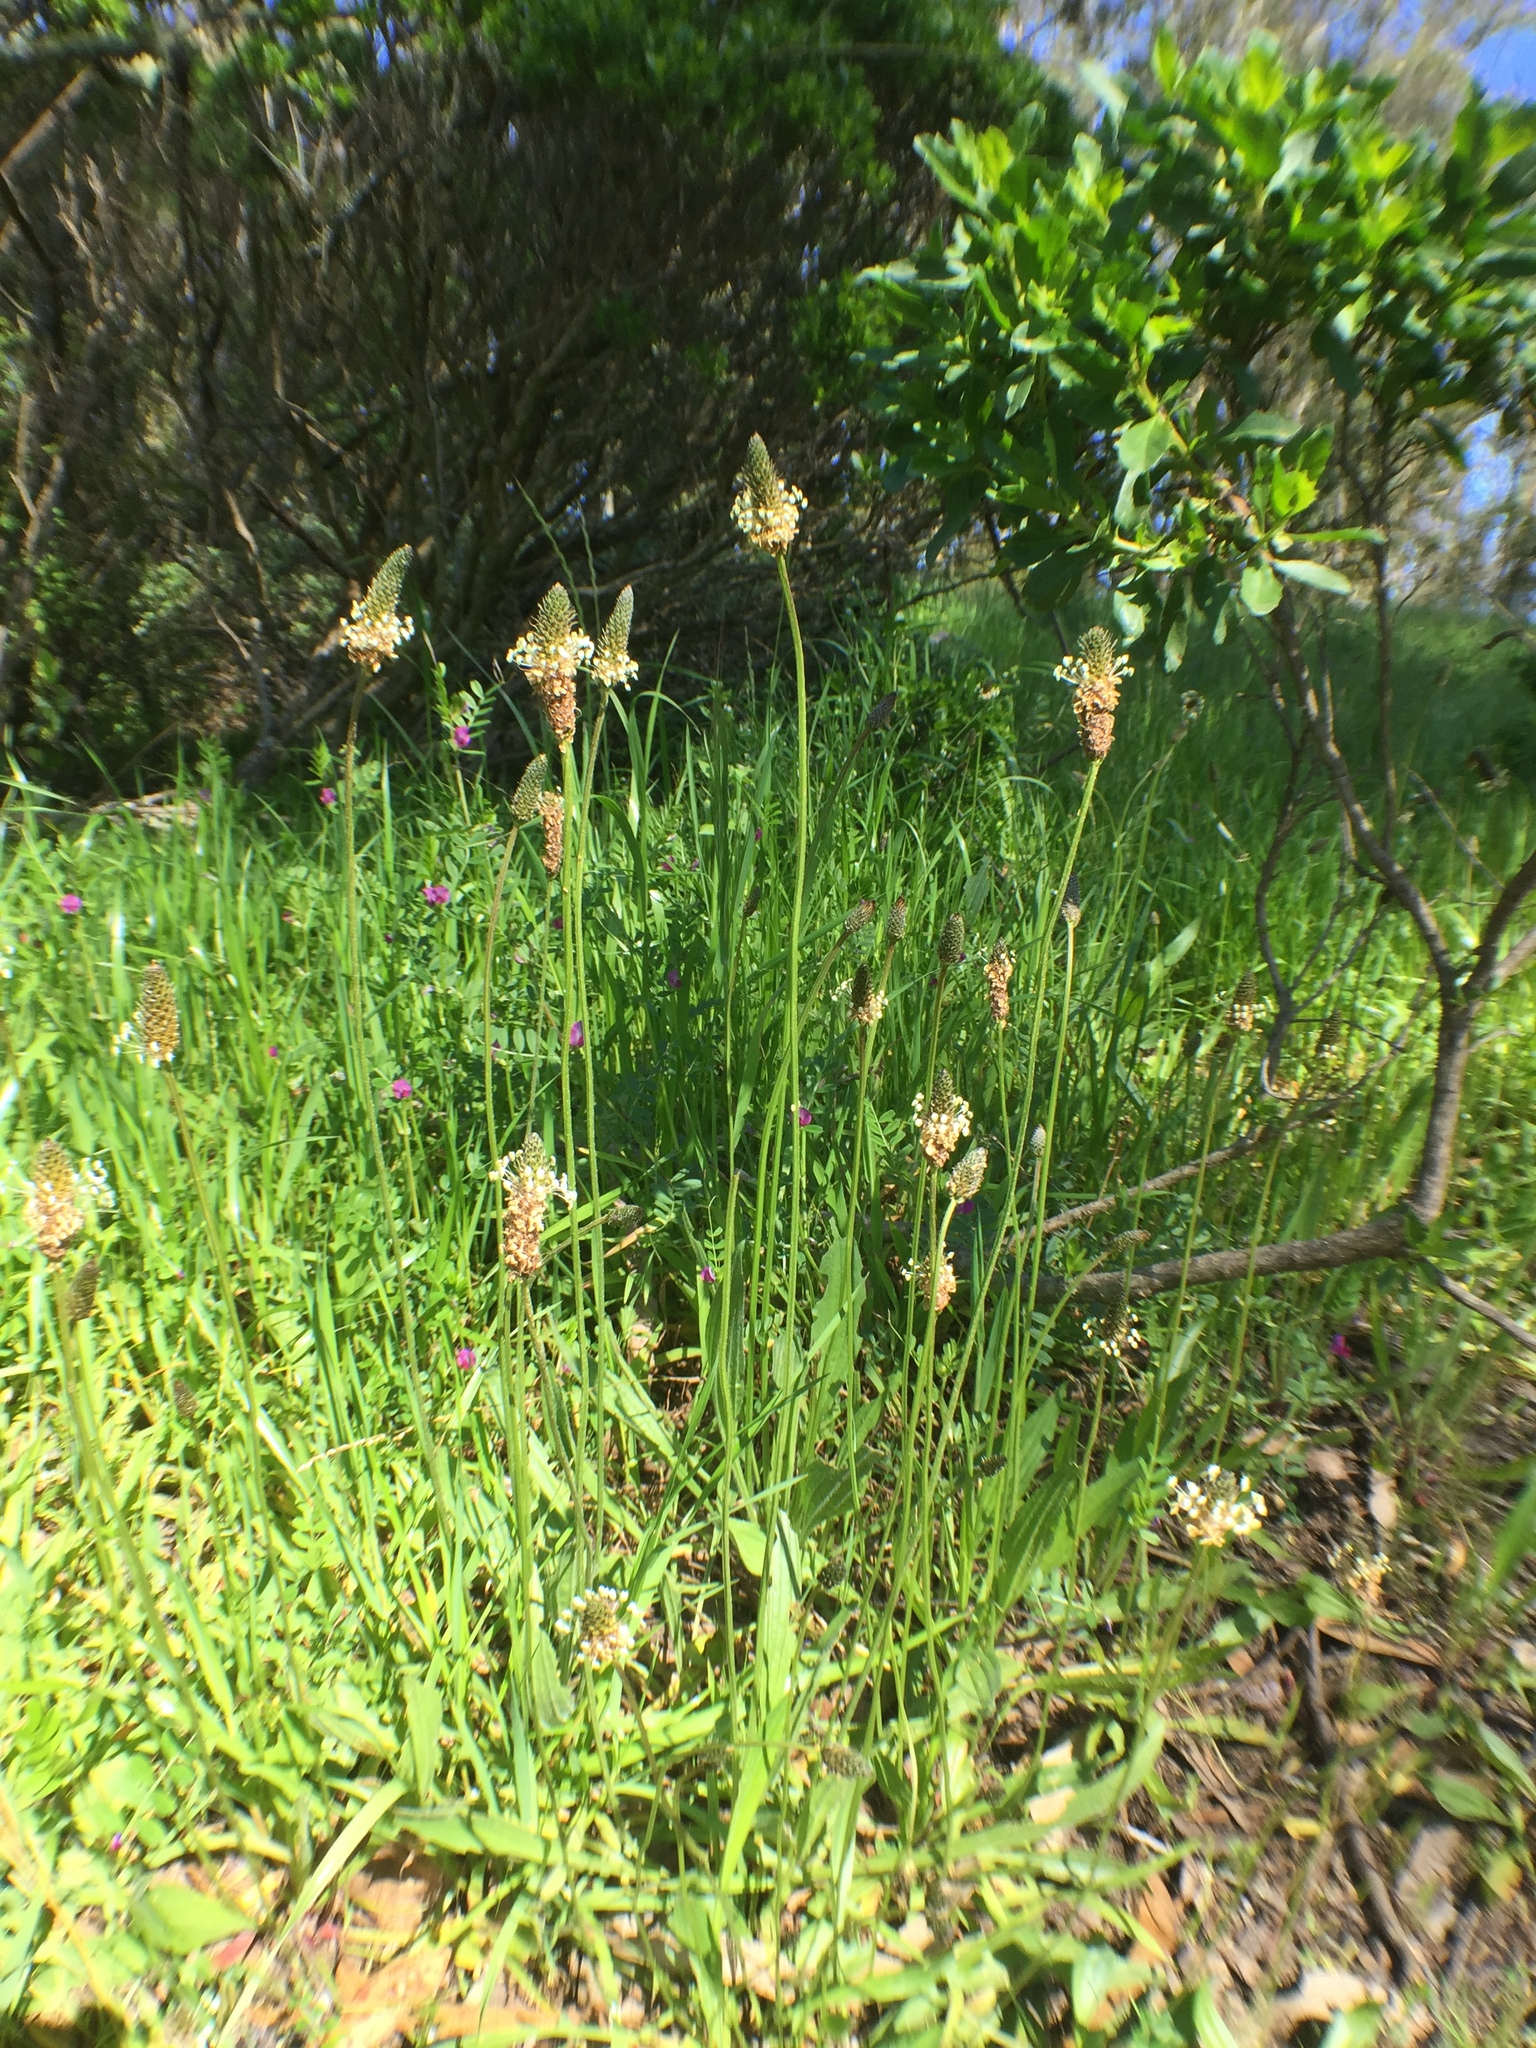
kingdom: Plantae
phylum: Tracheophyta
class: Magnoliopsida
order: Lamiales
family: Plantaginaceae
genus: Plantago
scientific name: Plantago lanceolata
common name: Ribwort plantain
